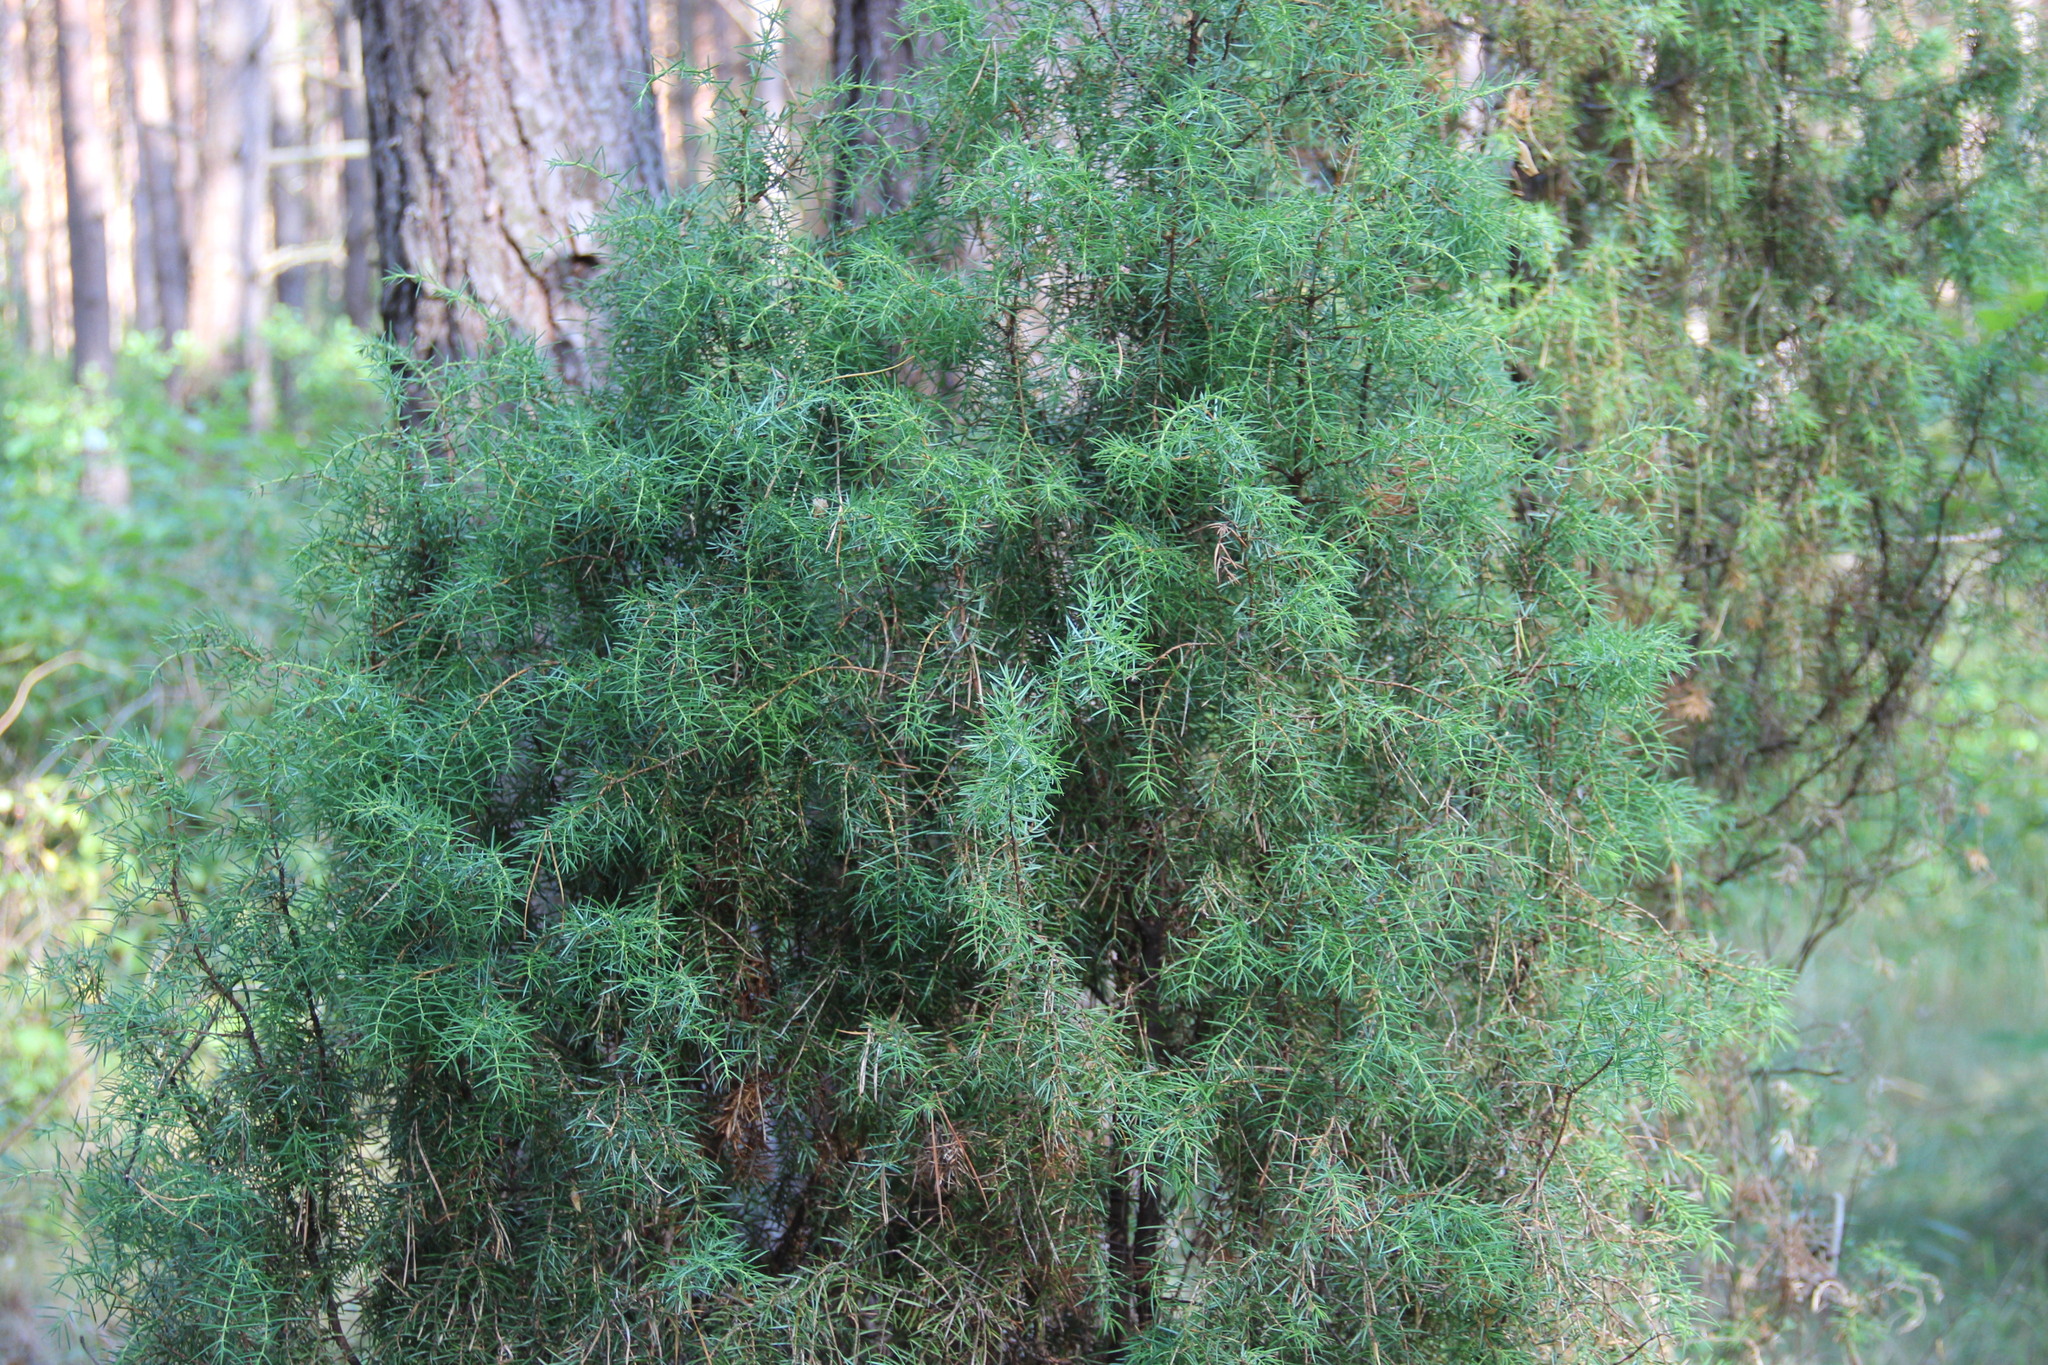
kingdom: Plantae
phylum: Tracheophyta
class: Pinopsida
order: Pinales
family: Cupressaceae
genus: Juniperus
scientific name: Juniperus communis
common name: Common juniper
